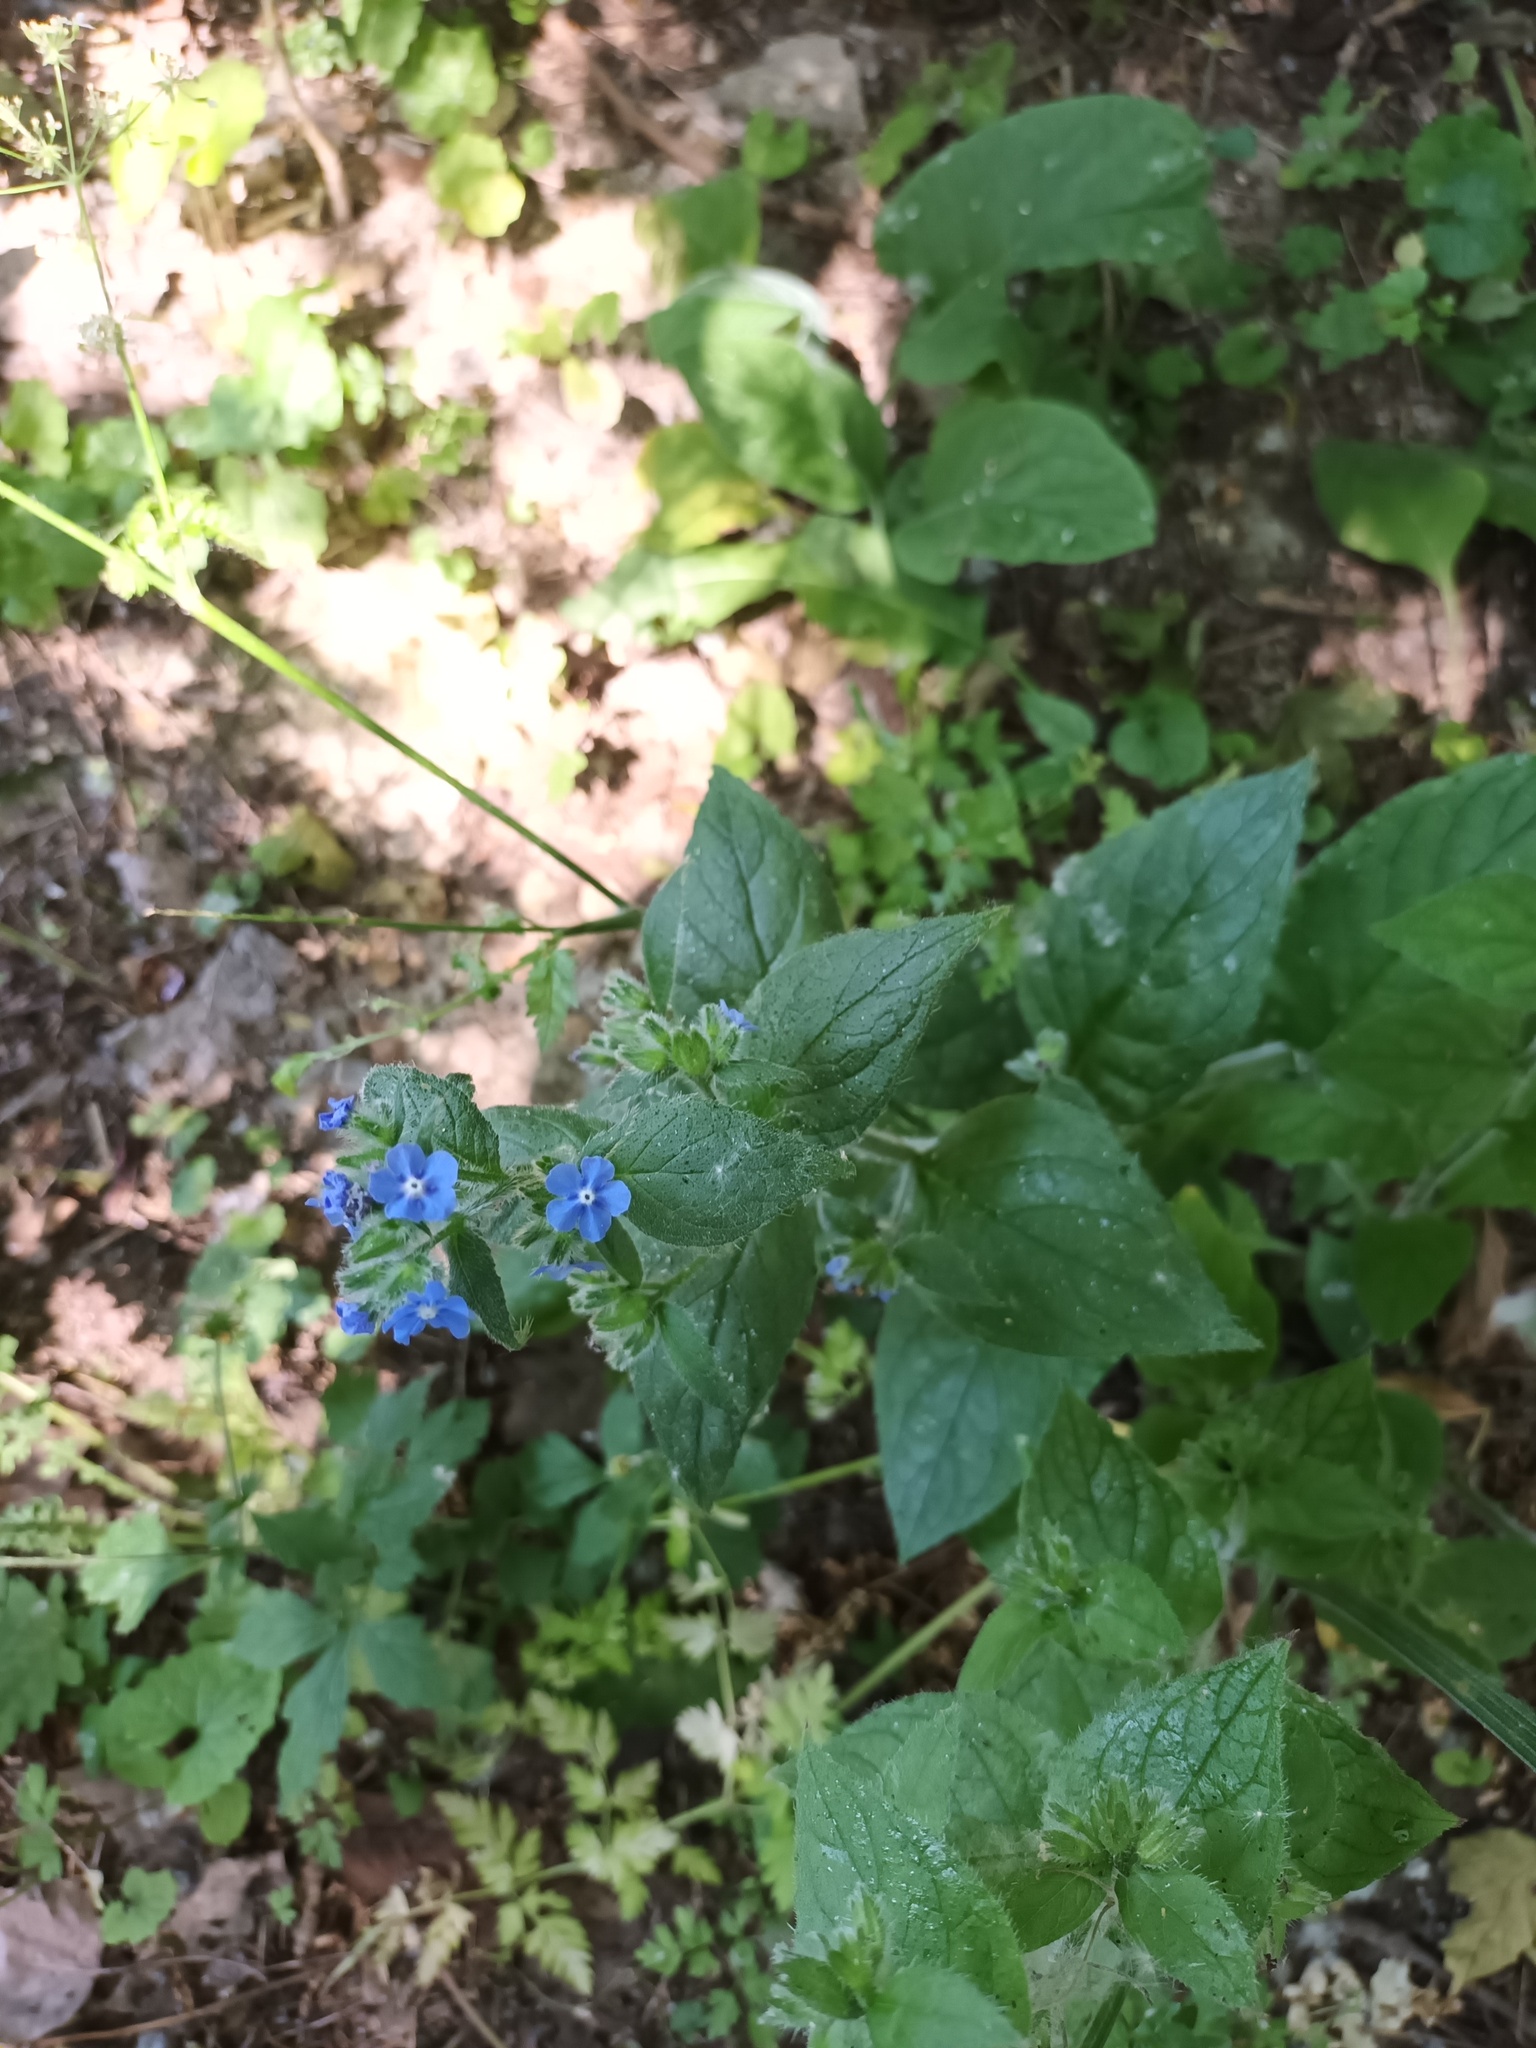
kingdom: Plantae
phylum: Tracheophyta
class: Magnoliopsida
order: Boraginales
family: Boraginaceae
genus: Pentaglottis
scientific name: Pentaglottis sempervirens
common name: Green alkanet
